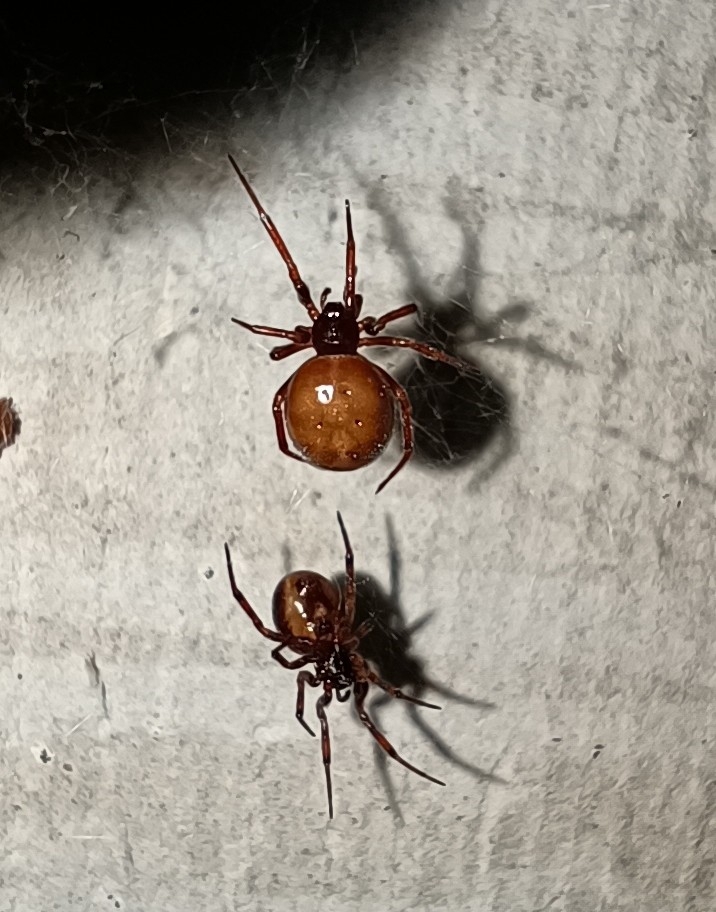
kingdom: Animalia
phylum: Arthropoda
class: Arachnida
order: Araneae
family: Theridiidae
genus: Steatoda
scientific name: Steatoda bipunctata
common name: False widow
